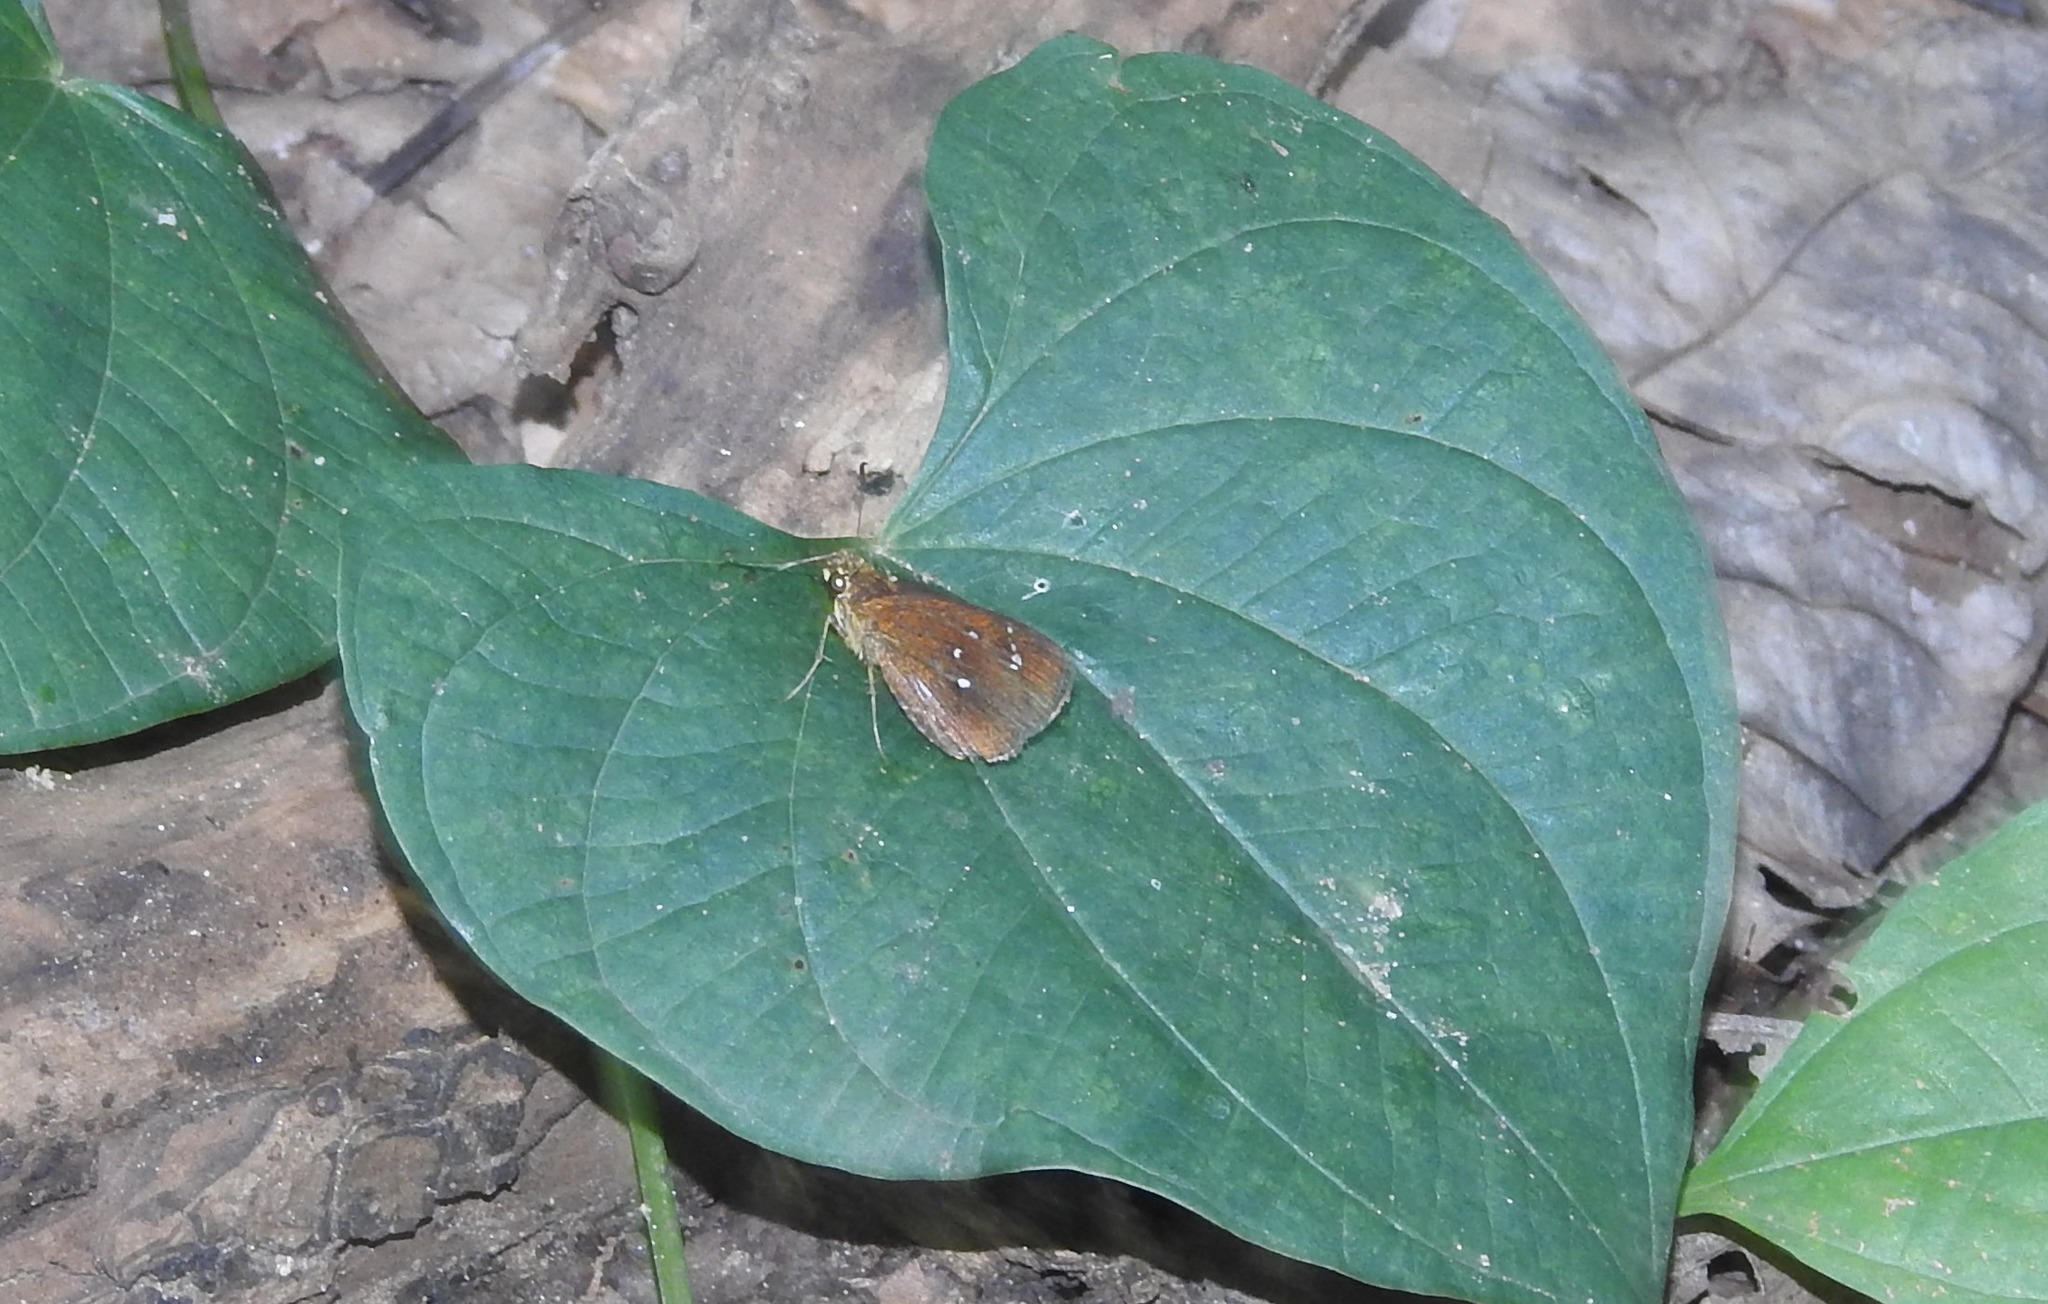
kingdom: Animalia
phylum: Arthropoda
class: Insecta
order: Lepidoptera
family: Hesperiidae
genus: Iambrix
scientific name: Iambrix salsala
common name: Chestnut bob
